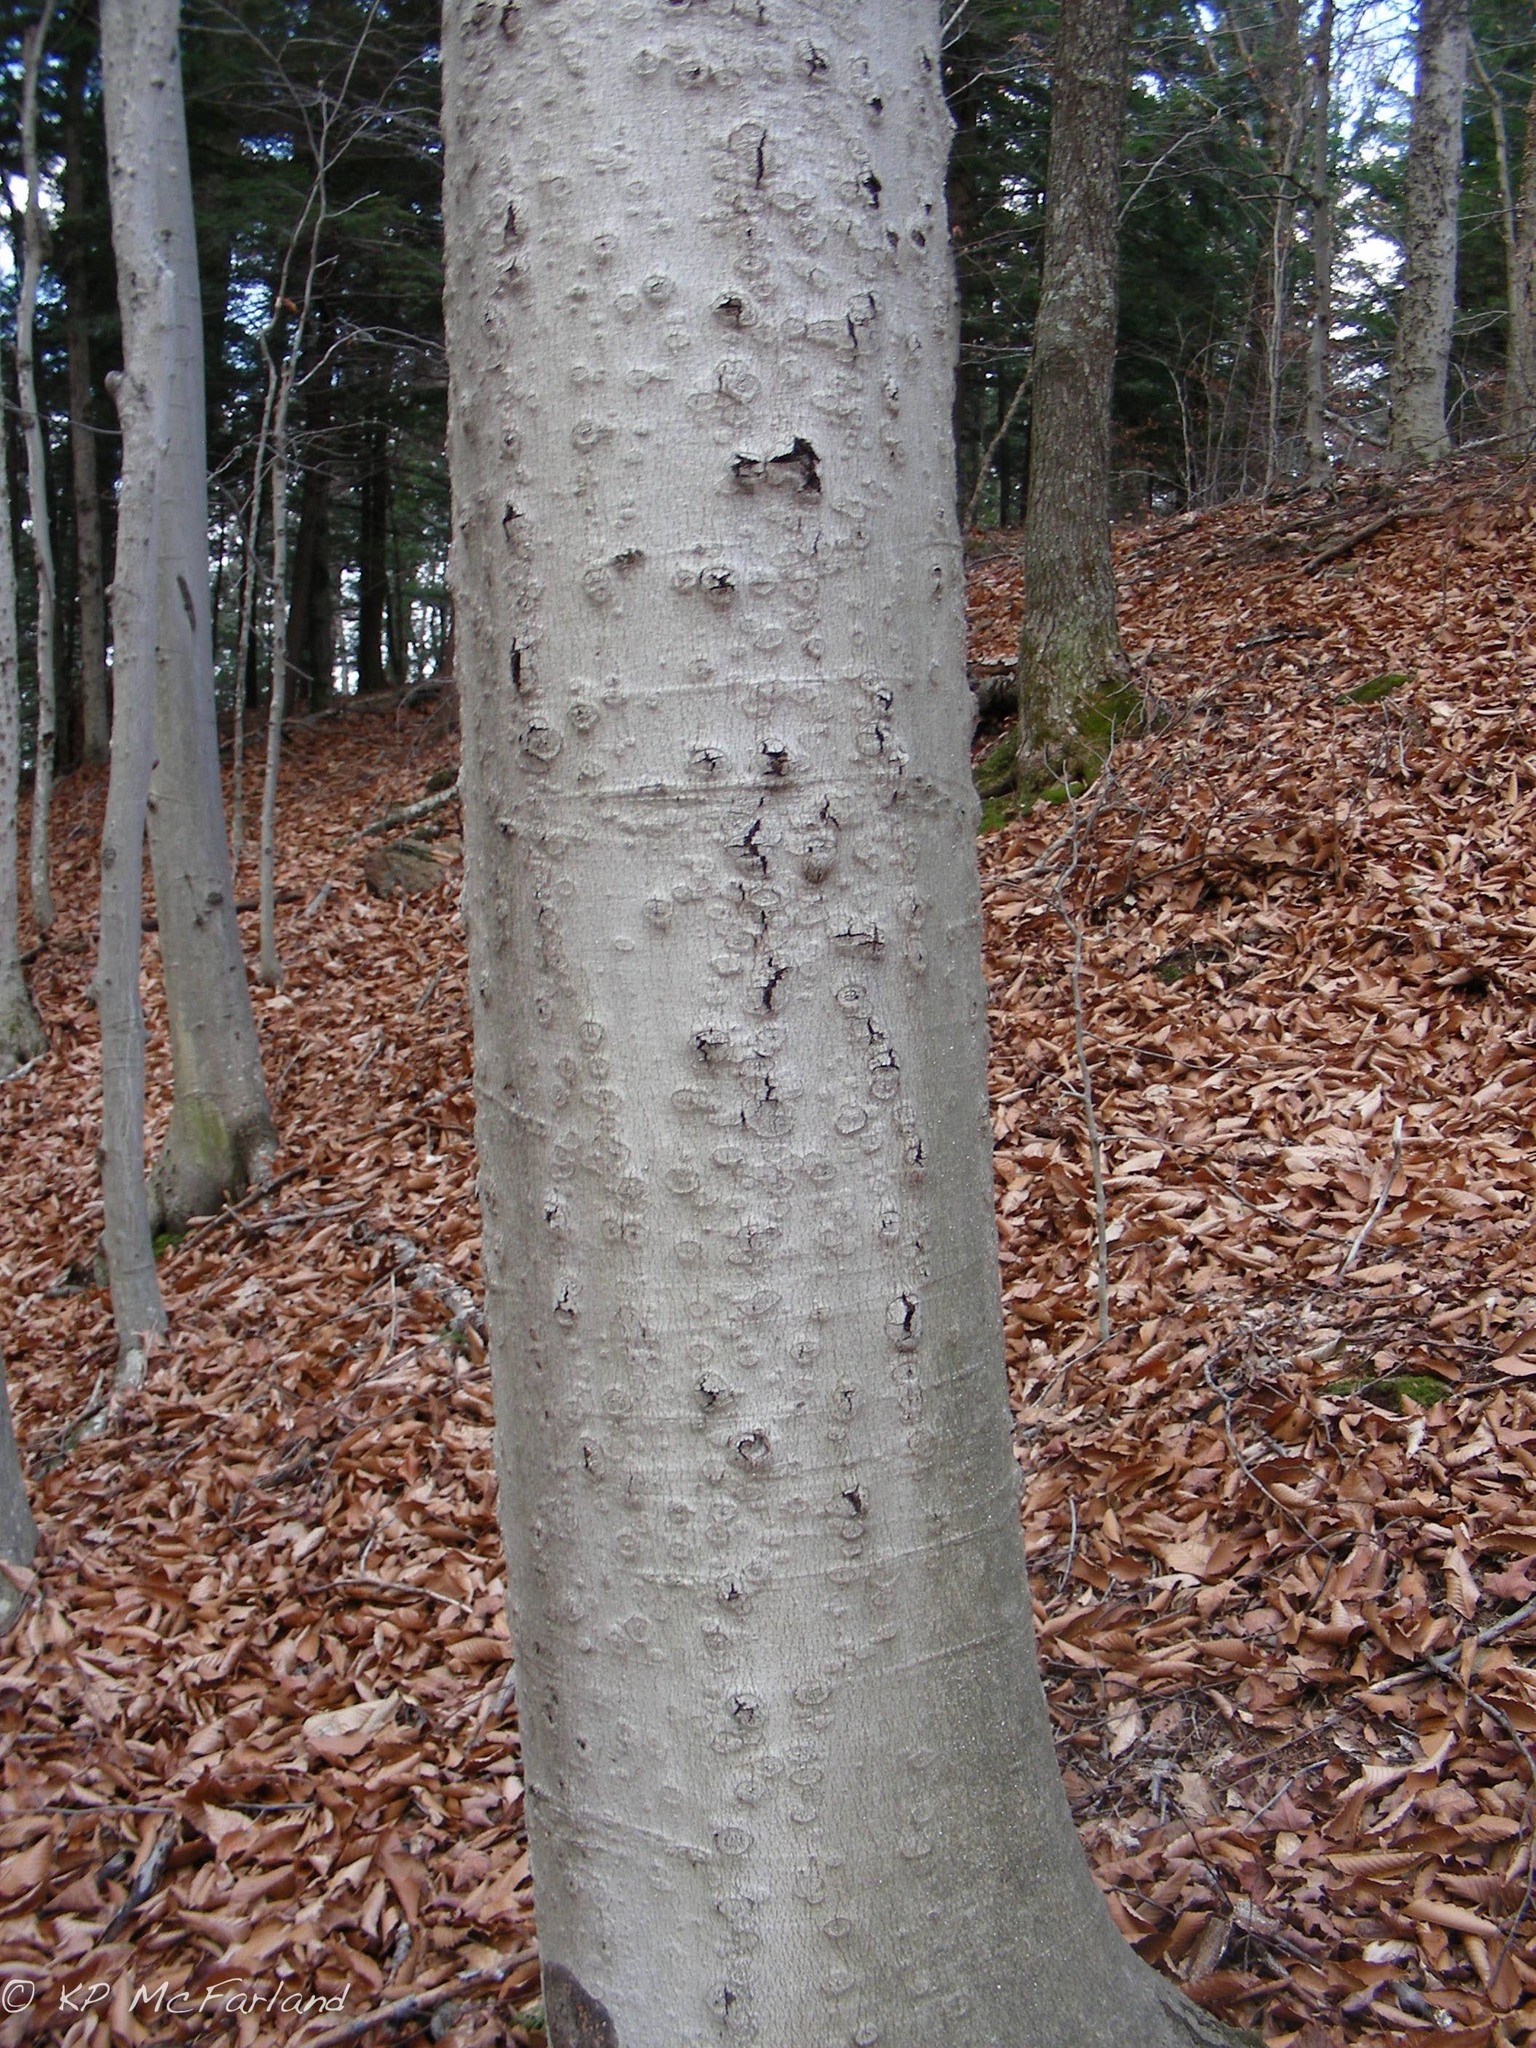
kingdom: Plantae
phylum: Tracheophyta
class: Magnoliopsida
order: Fagales
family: Fagaceae
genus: Fagus
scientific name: Fagus grandifolia
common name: American beech
